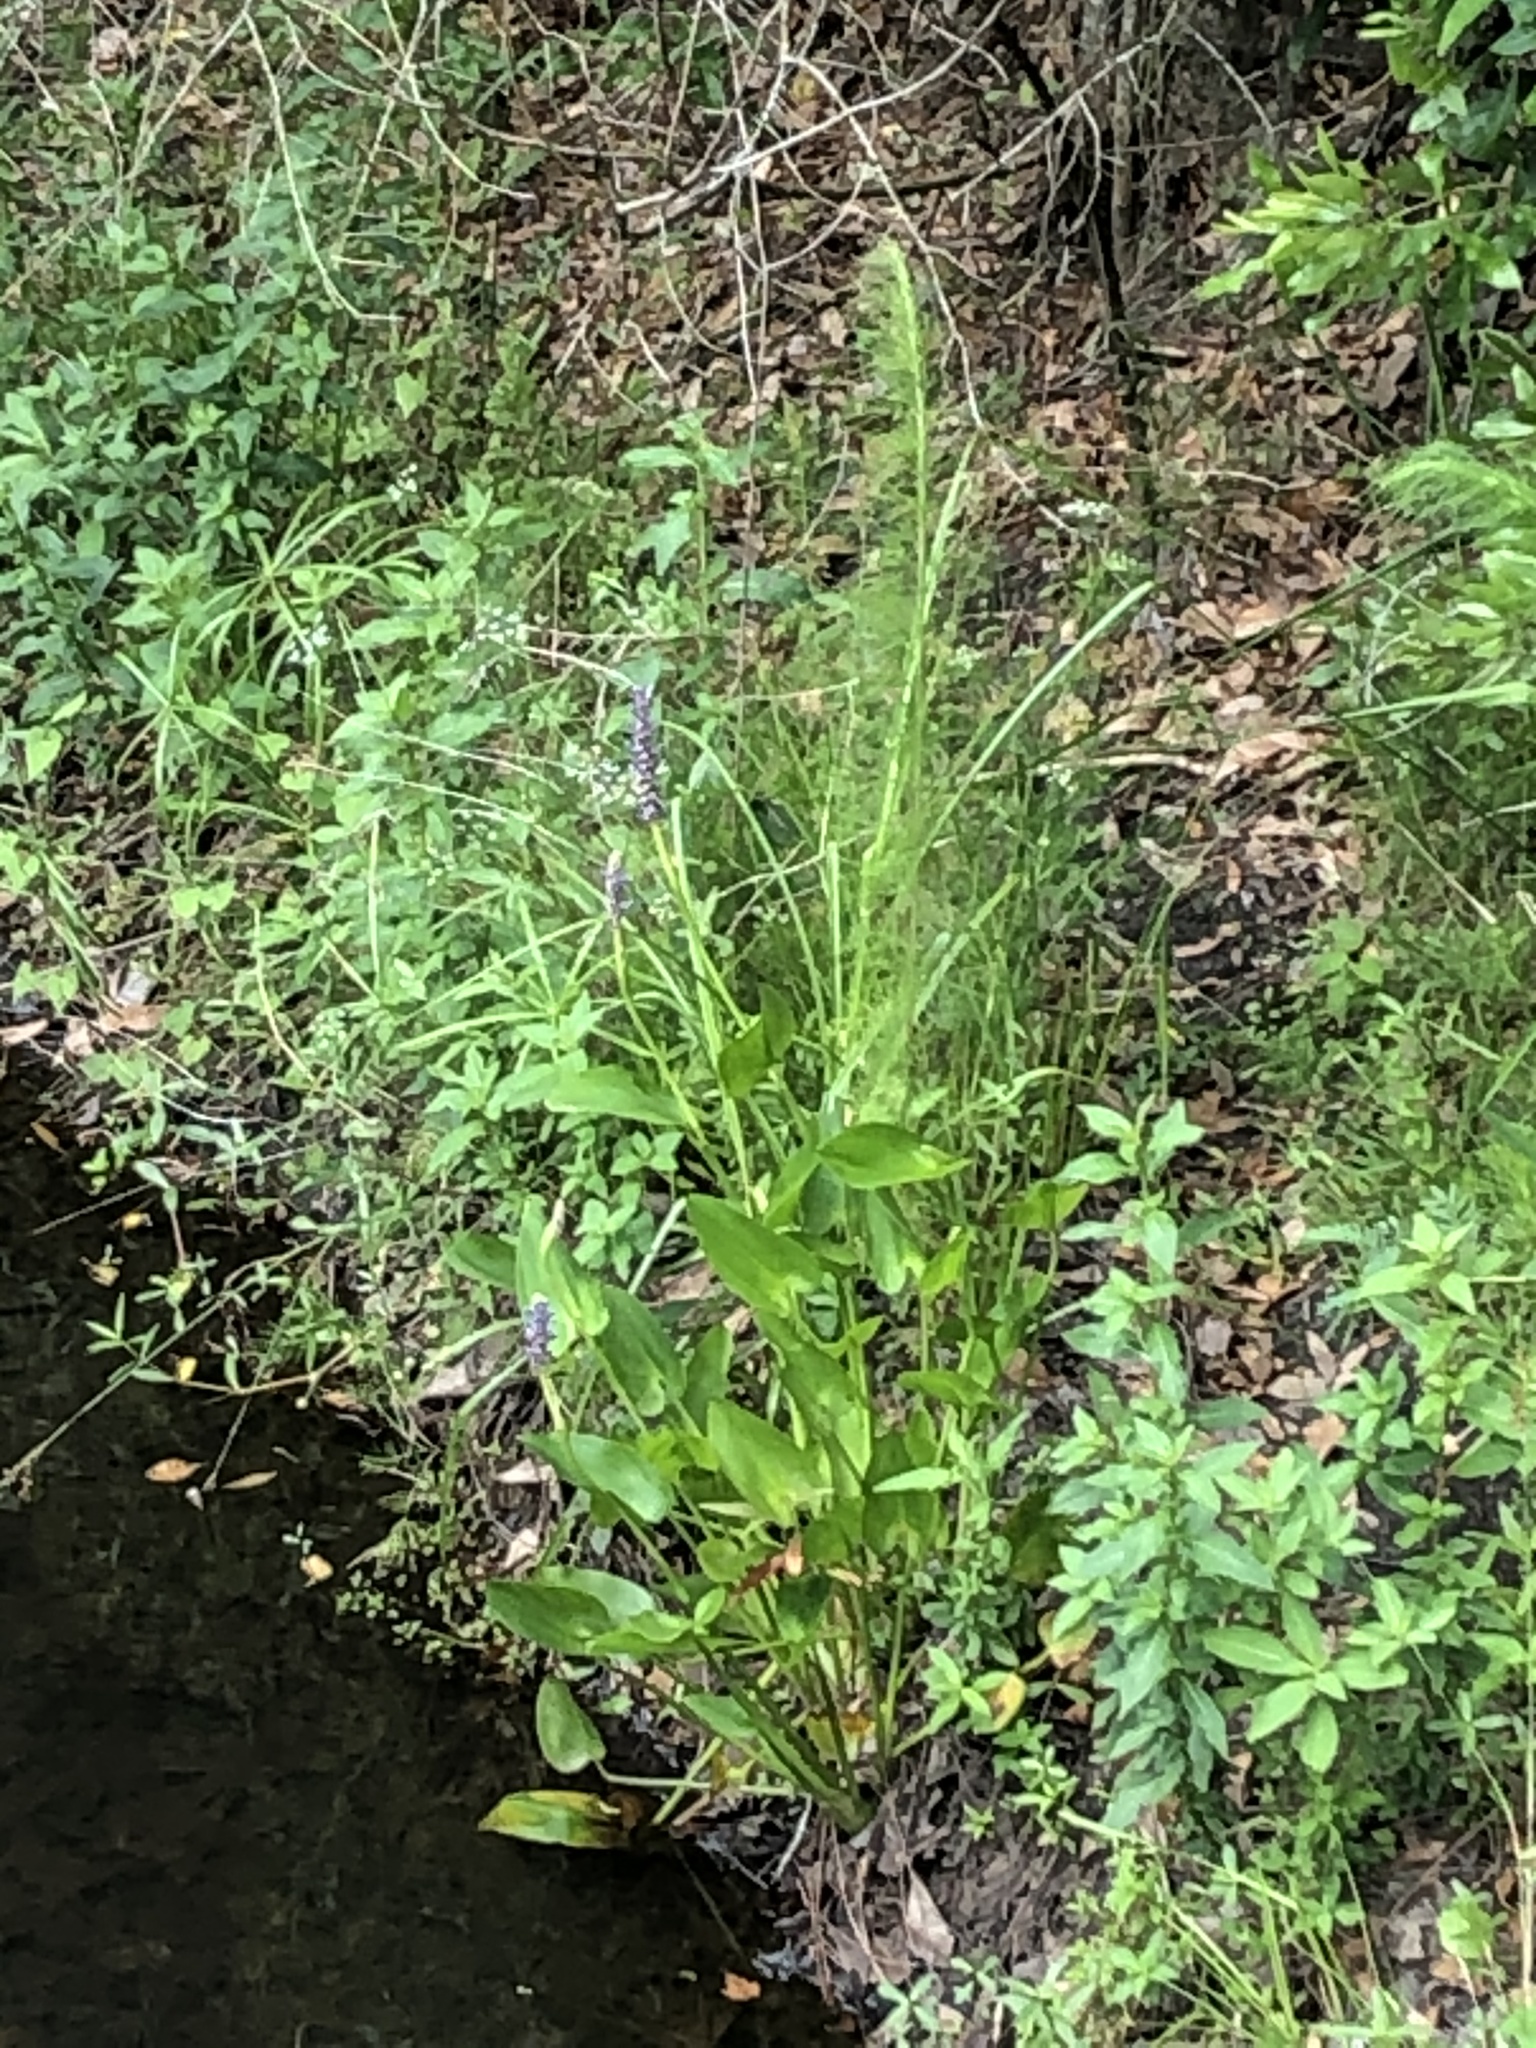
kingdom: Plantae
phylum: Tracheophyta
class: Liliopsida
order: Commelinales
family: Pontederiaceae
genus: Pontederia
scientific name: Pontederia cordata
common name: Pickerelweed
